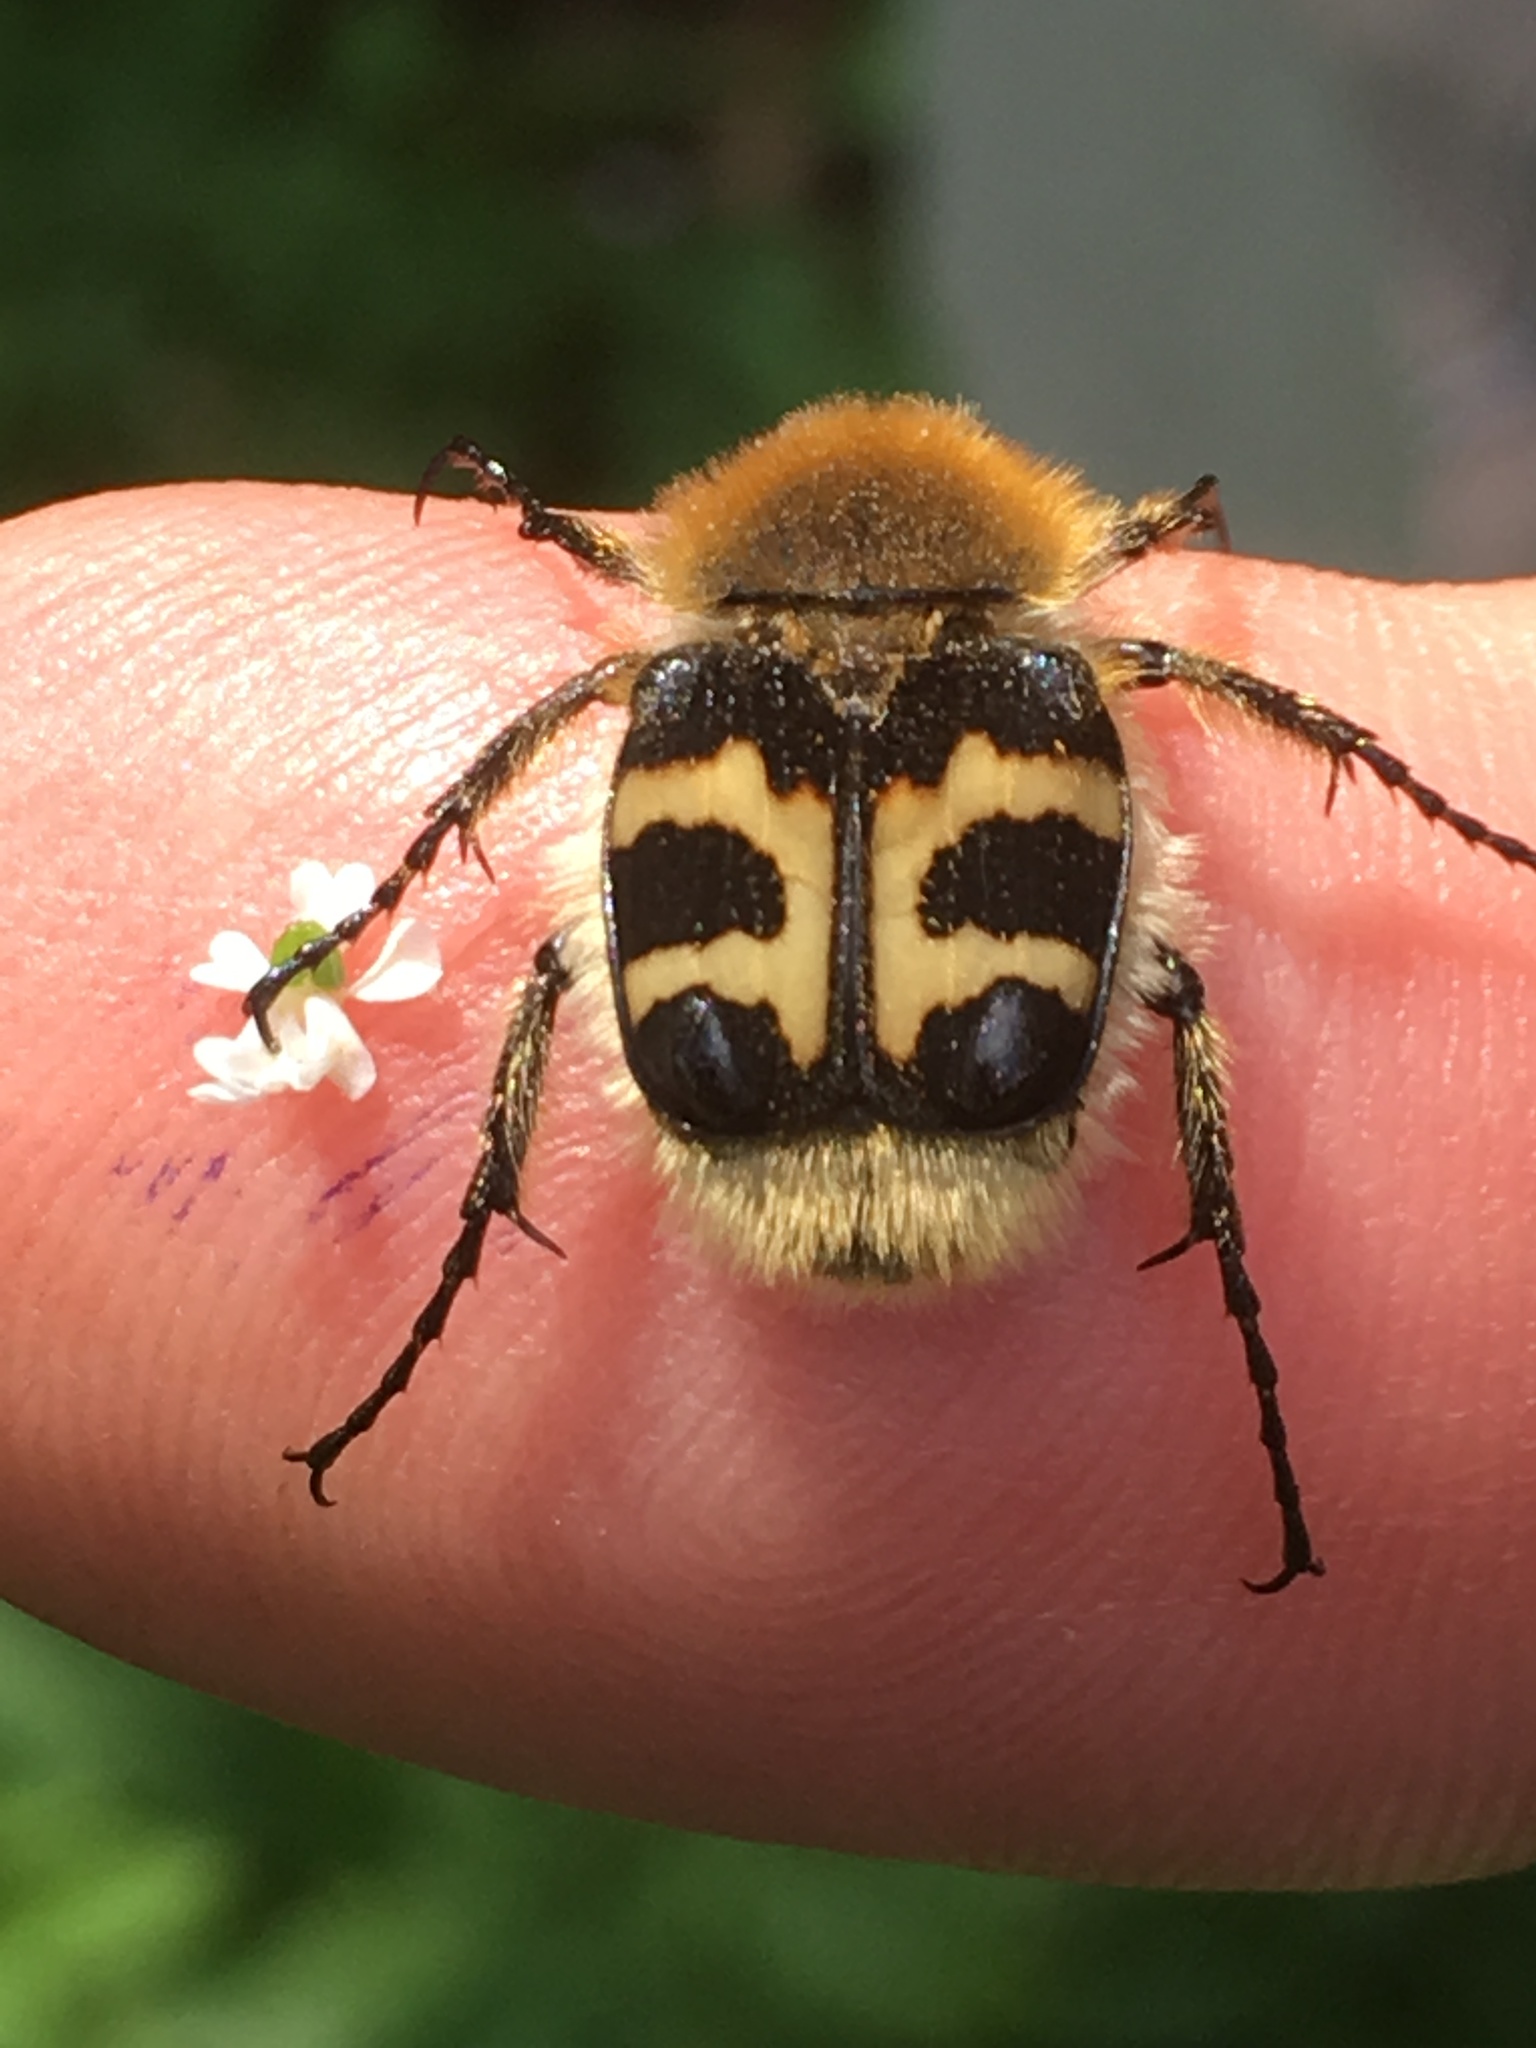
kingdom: Animalia
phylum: Arthropoda
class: Insecta
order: Coleoptera
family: Scarabaeidae
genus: Trichius
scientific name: Trichius fasciatus
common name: Bee beetle
